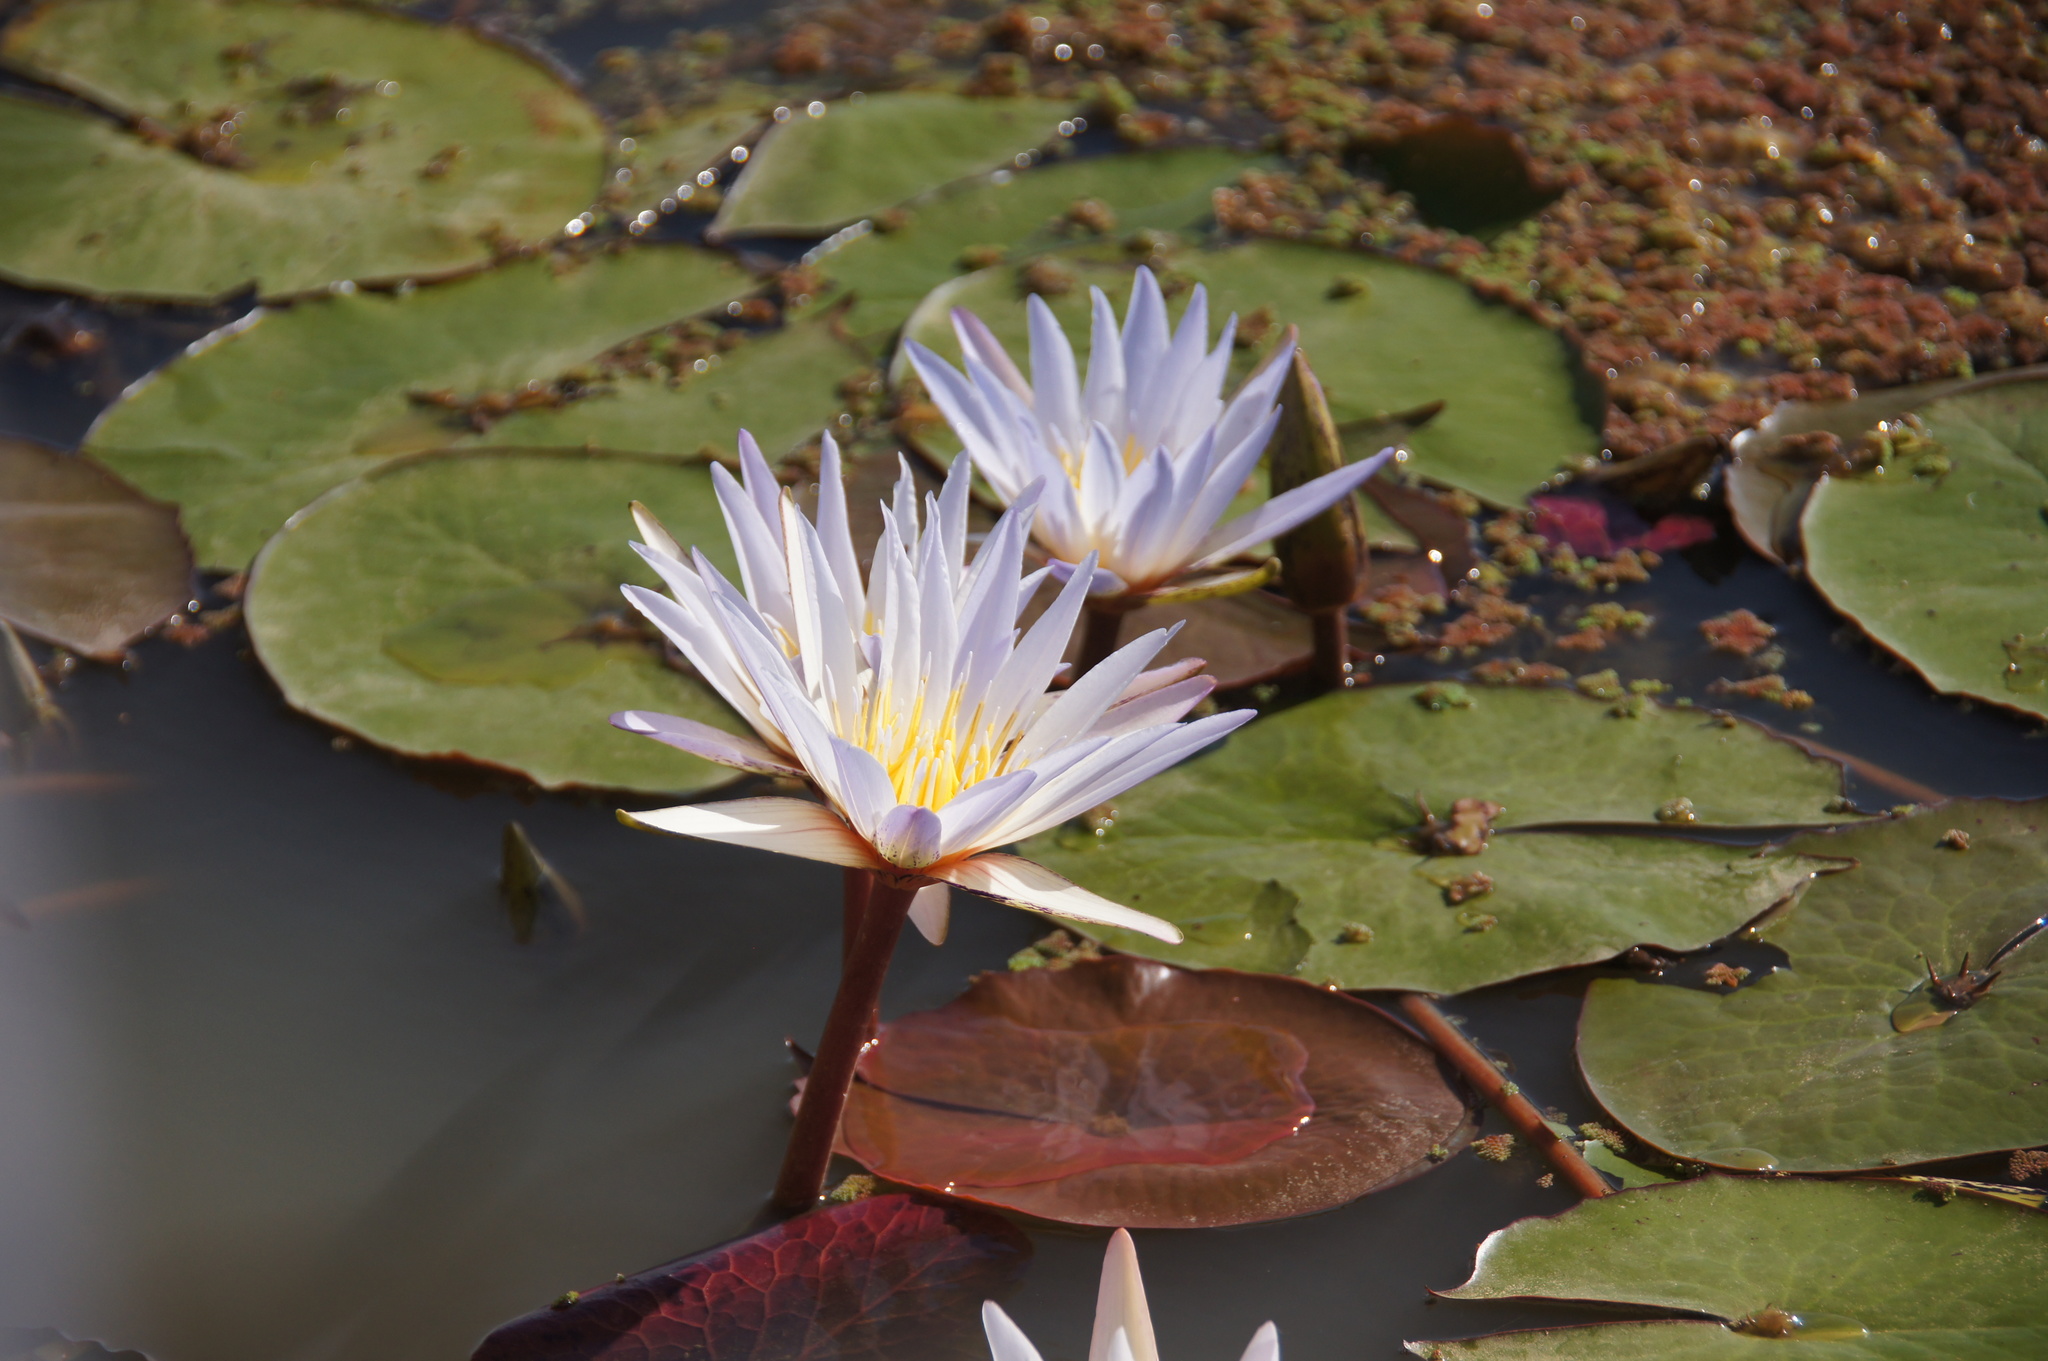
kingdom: Plantae
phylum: Tracheophyta
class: Magnoliopsida
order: Nymphaeales
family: Nymphaeaceae
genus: Nymphaea
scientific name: Nymphaea micrantha
